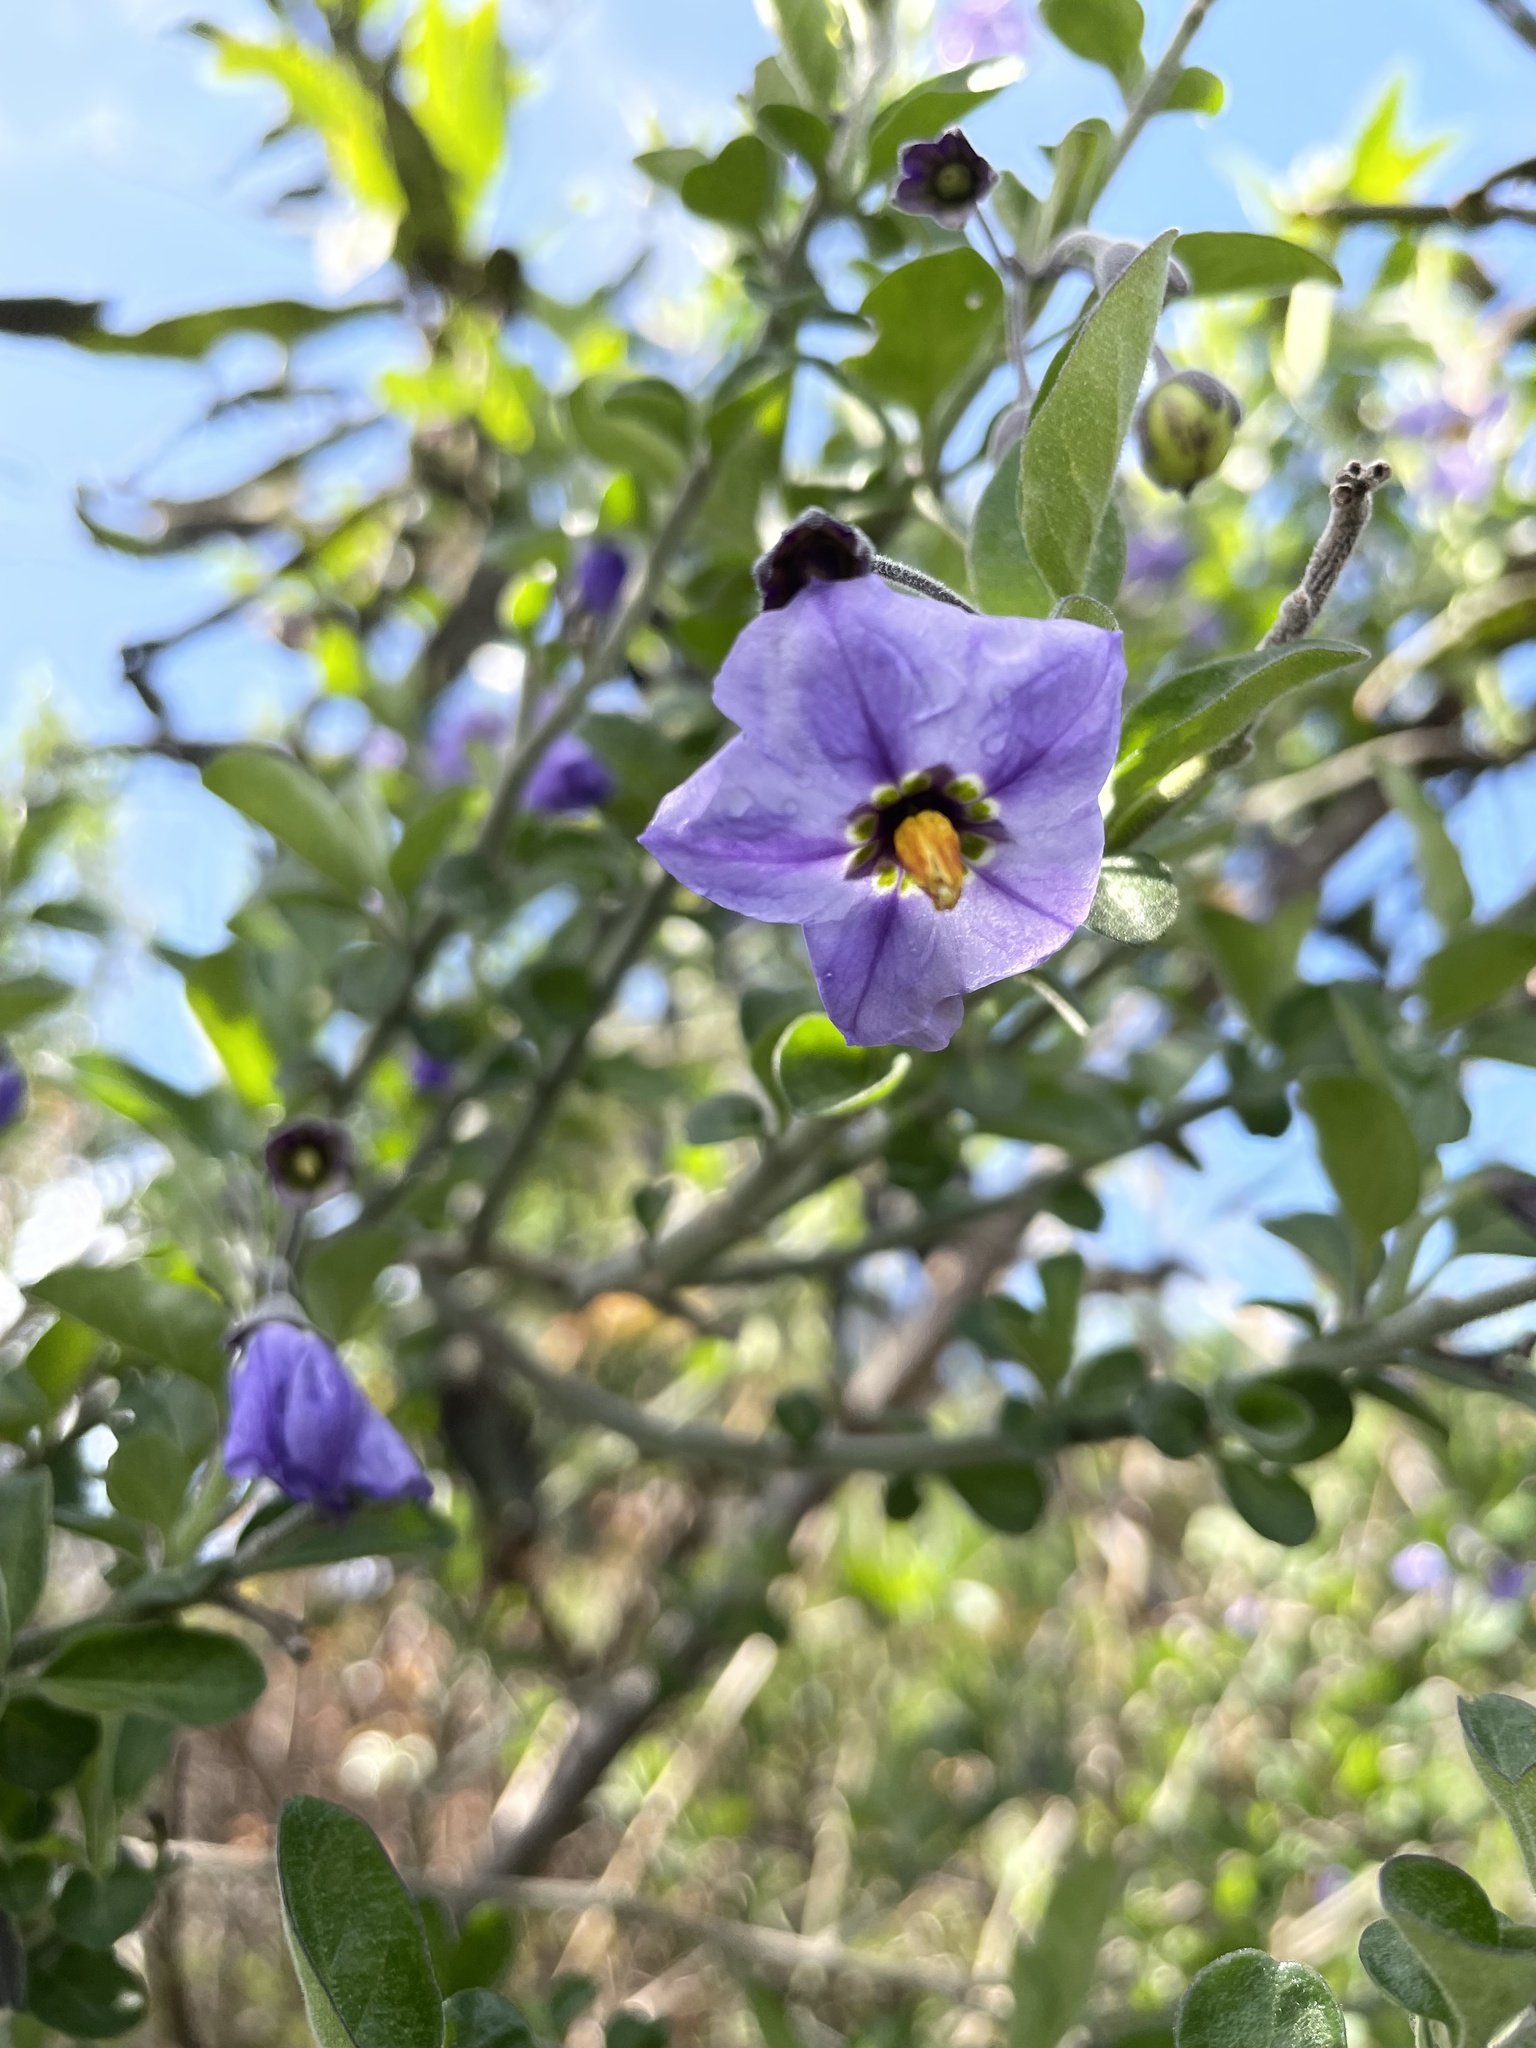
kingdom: Plantae
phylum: Tracheophyta
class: Magnoliopsida
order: Solanales
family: Solanaceae
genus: Solanum
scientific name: Solanum umbelliferum
